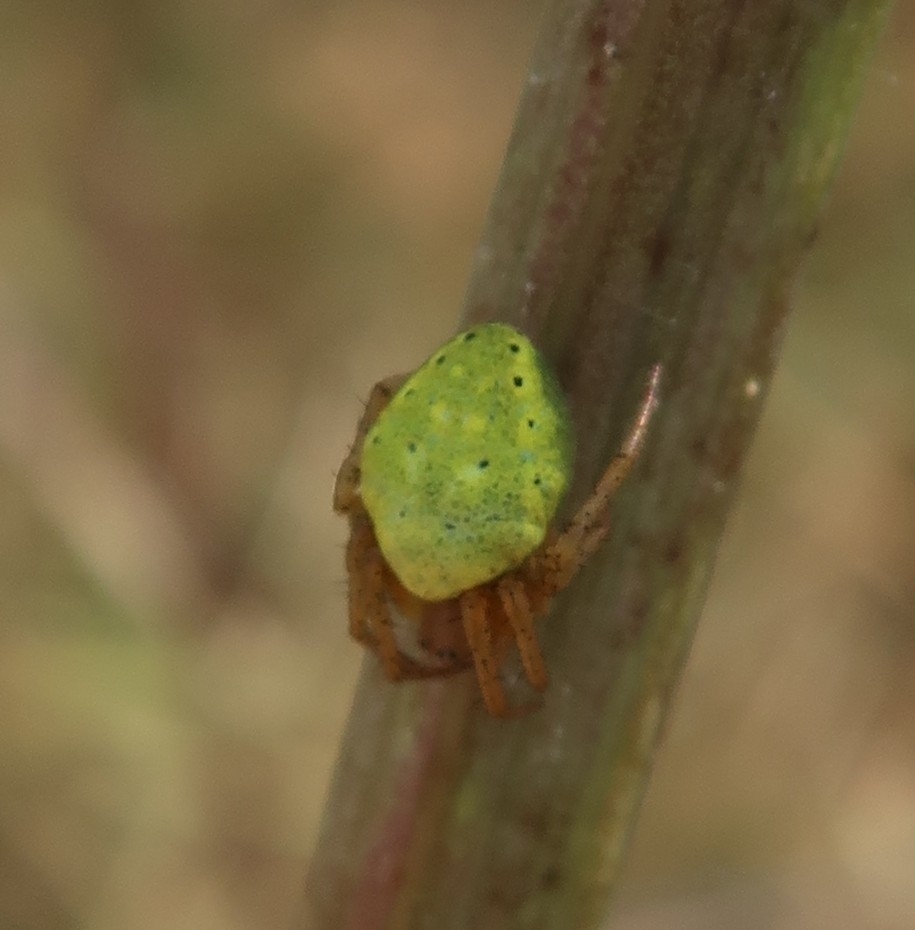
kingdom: Animalia
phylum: Arthropoda
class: Arachnida
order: Araneae
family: Araneidae
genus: Araniella
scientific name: Araniella
